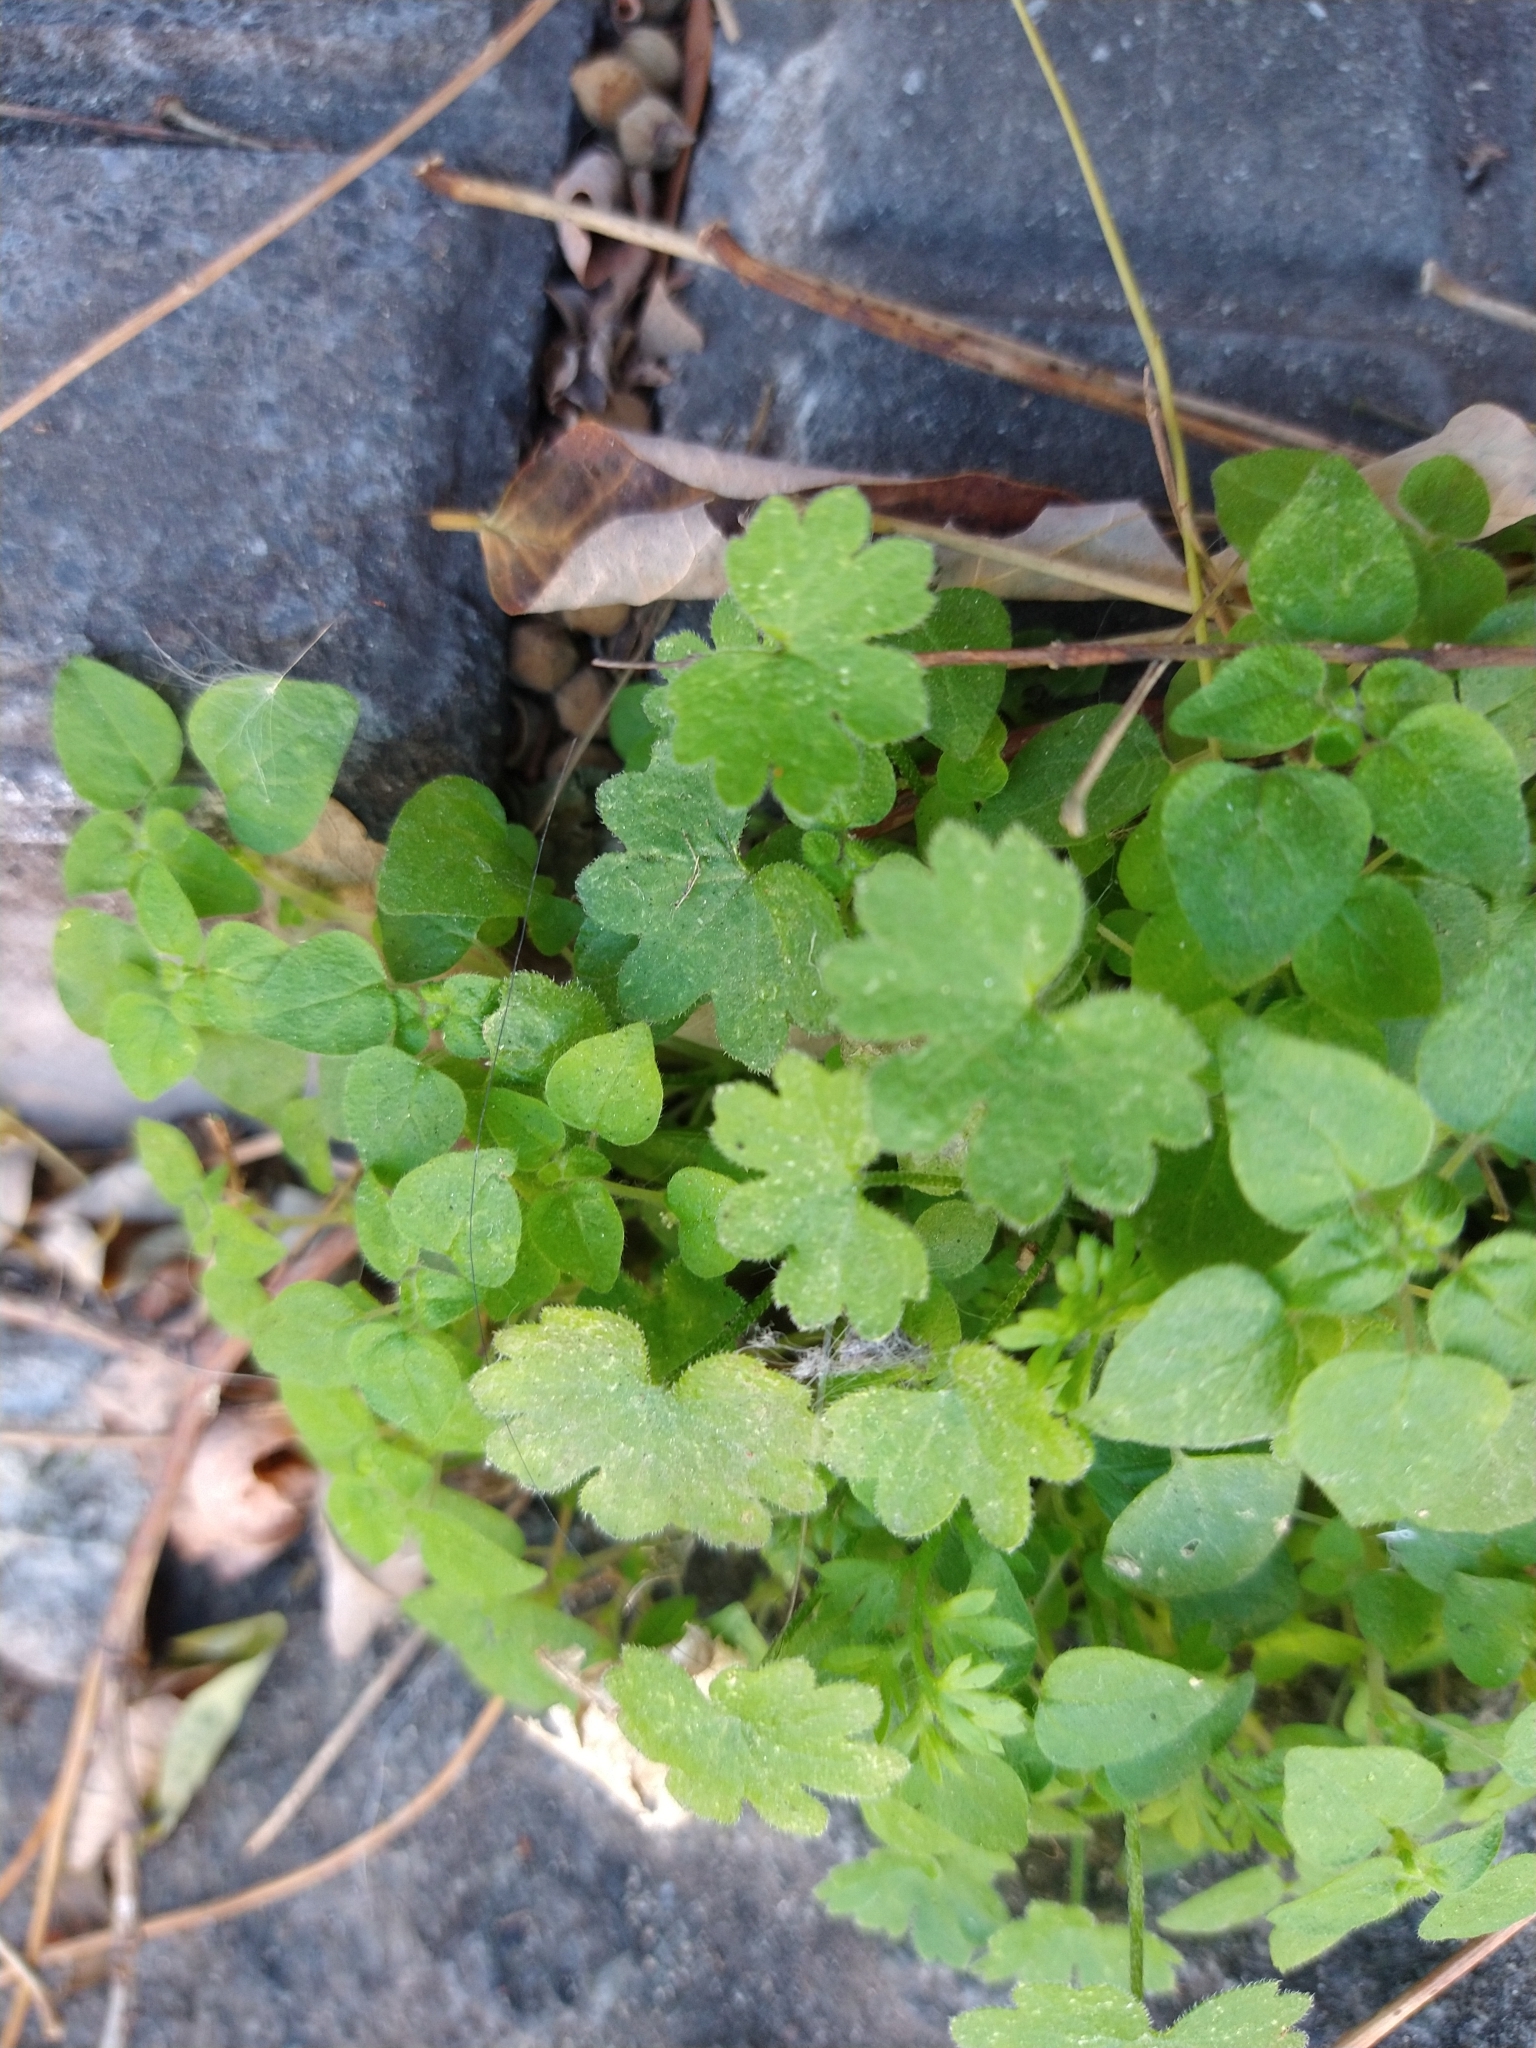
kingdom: Plantae
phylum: Tracheophyta
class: Magnoliopsida
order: Apiales
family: Apiaceae
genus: Bowlesia
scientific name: Bowlesia incana
